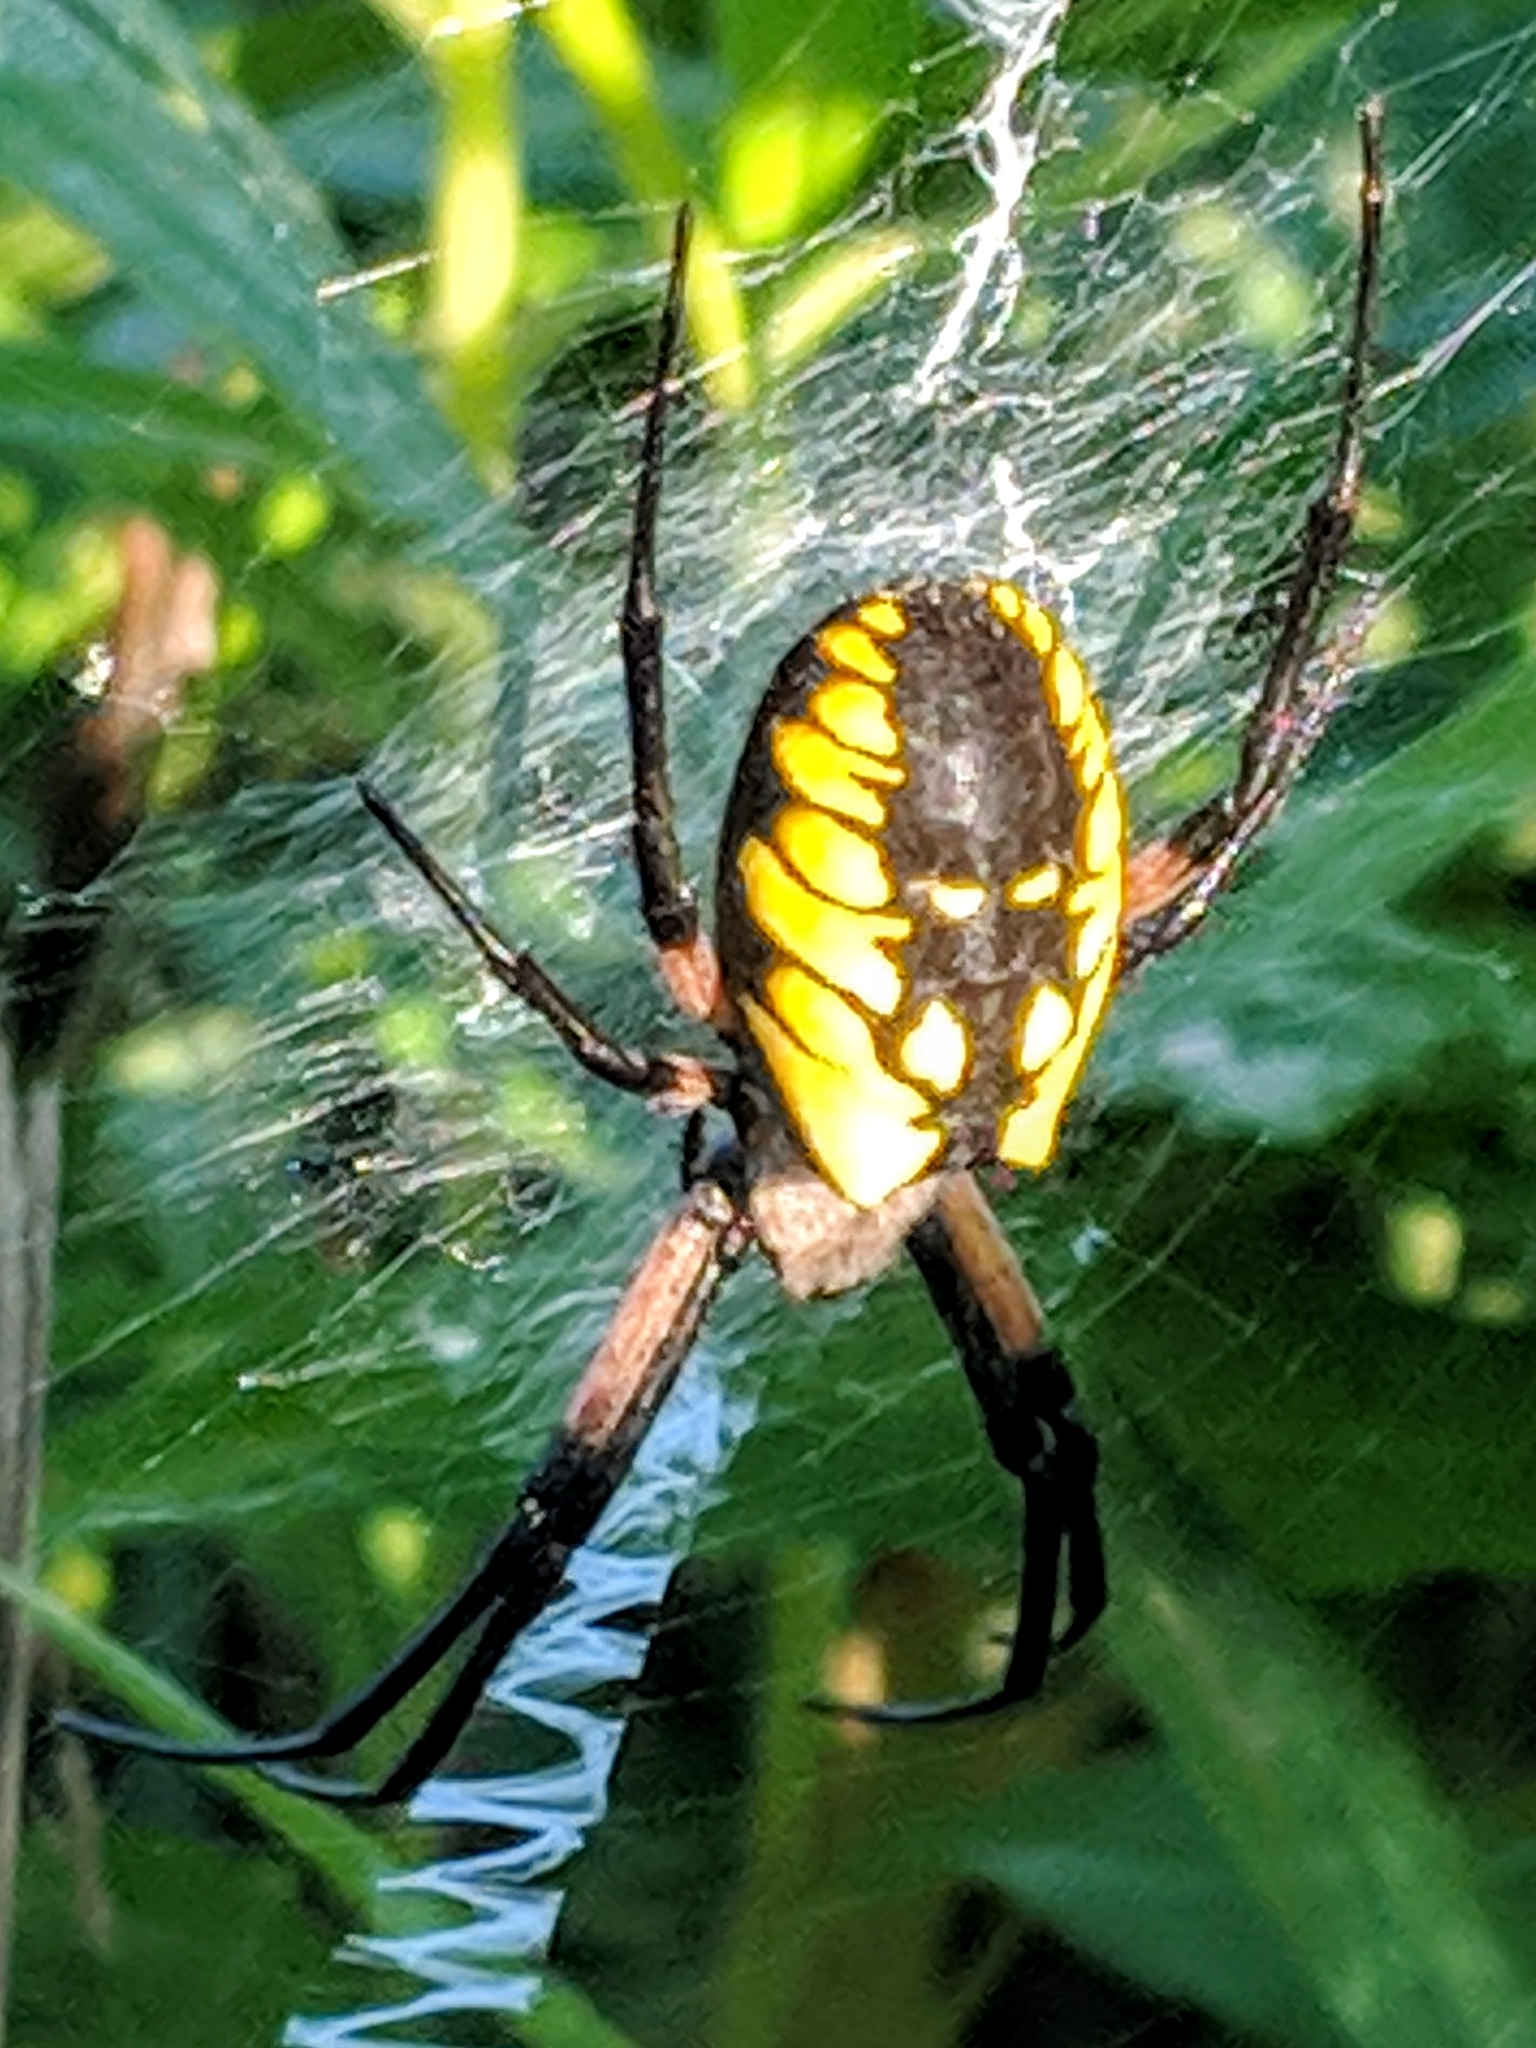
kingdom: Animalia
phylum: Arthropoda
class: Arachnida
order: Araneae
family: Araneidae
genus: Argiope
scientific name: Argiope aurantia
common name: Orb weavers
